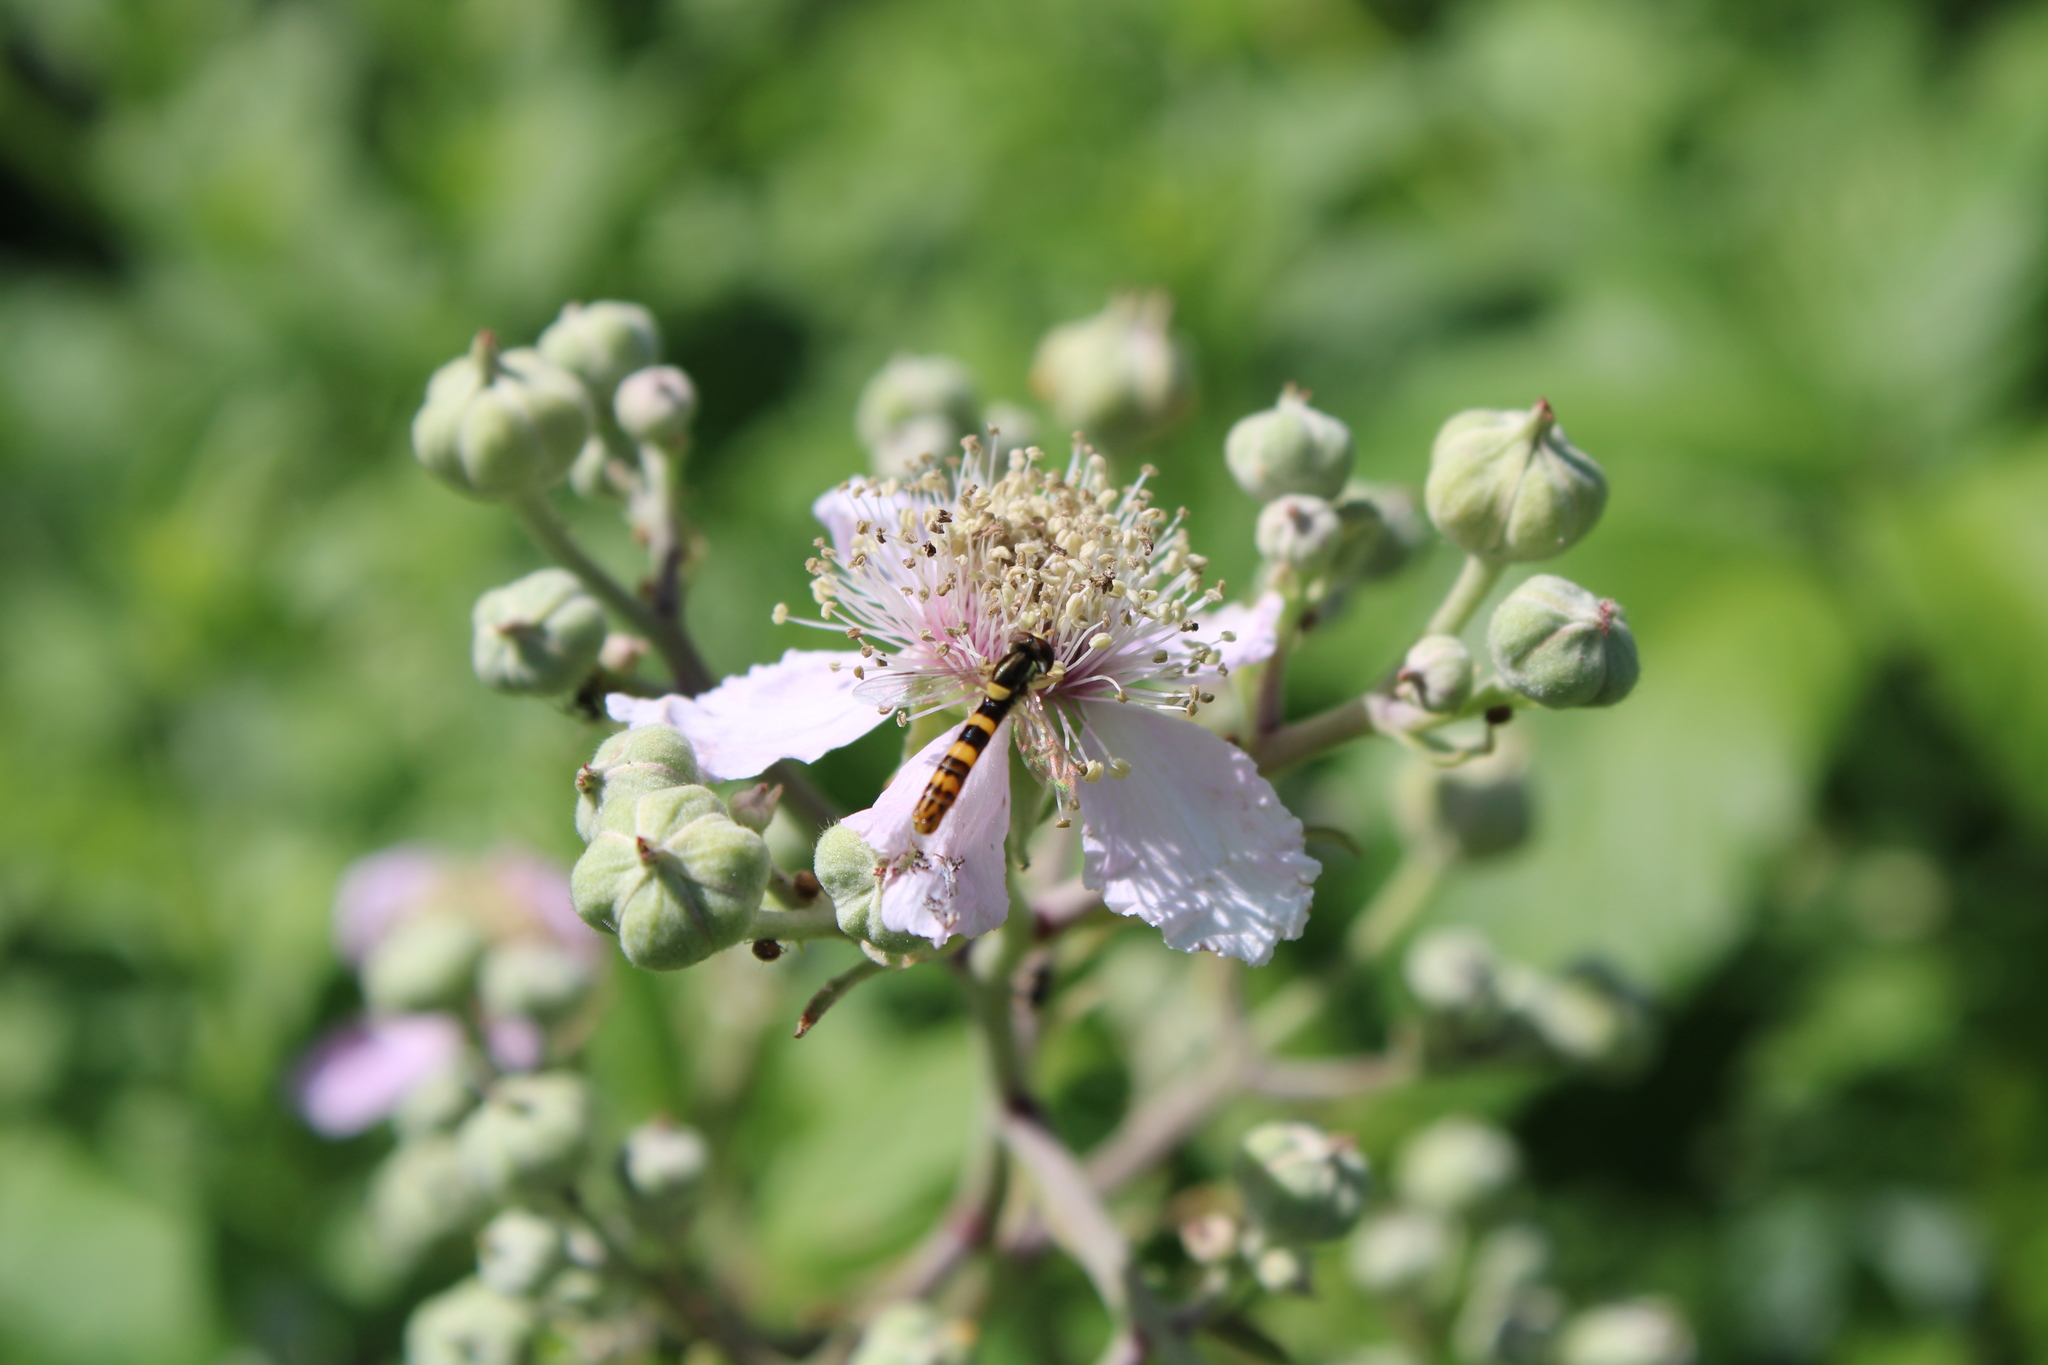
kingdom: Animalia
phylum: Arthropoda
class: Insecta
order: Diptera
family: Syrphidae
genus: Sphaerophoria
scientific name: Sphaerophoria scripta
